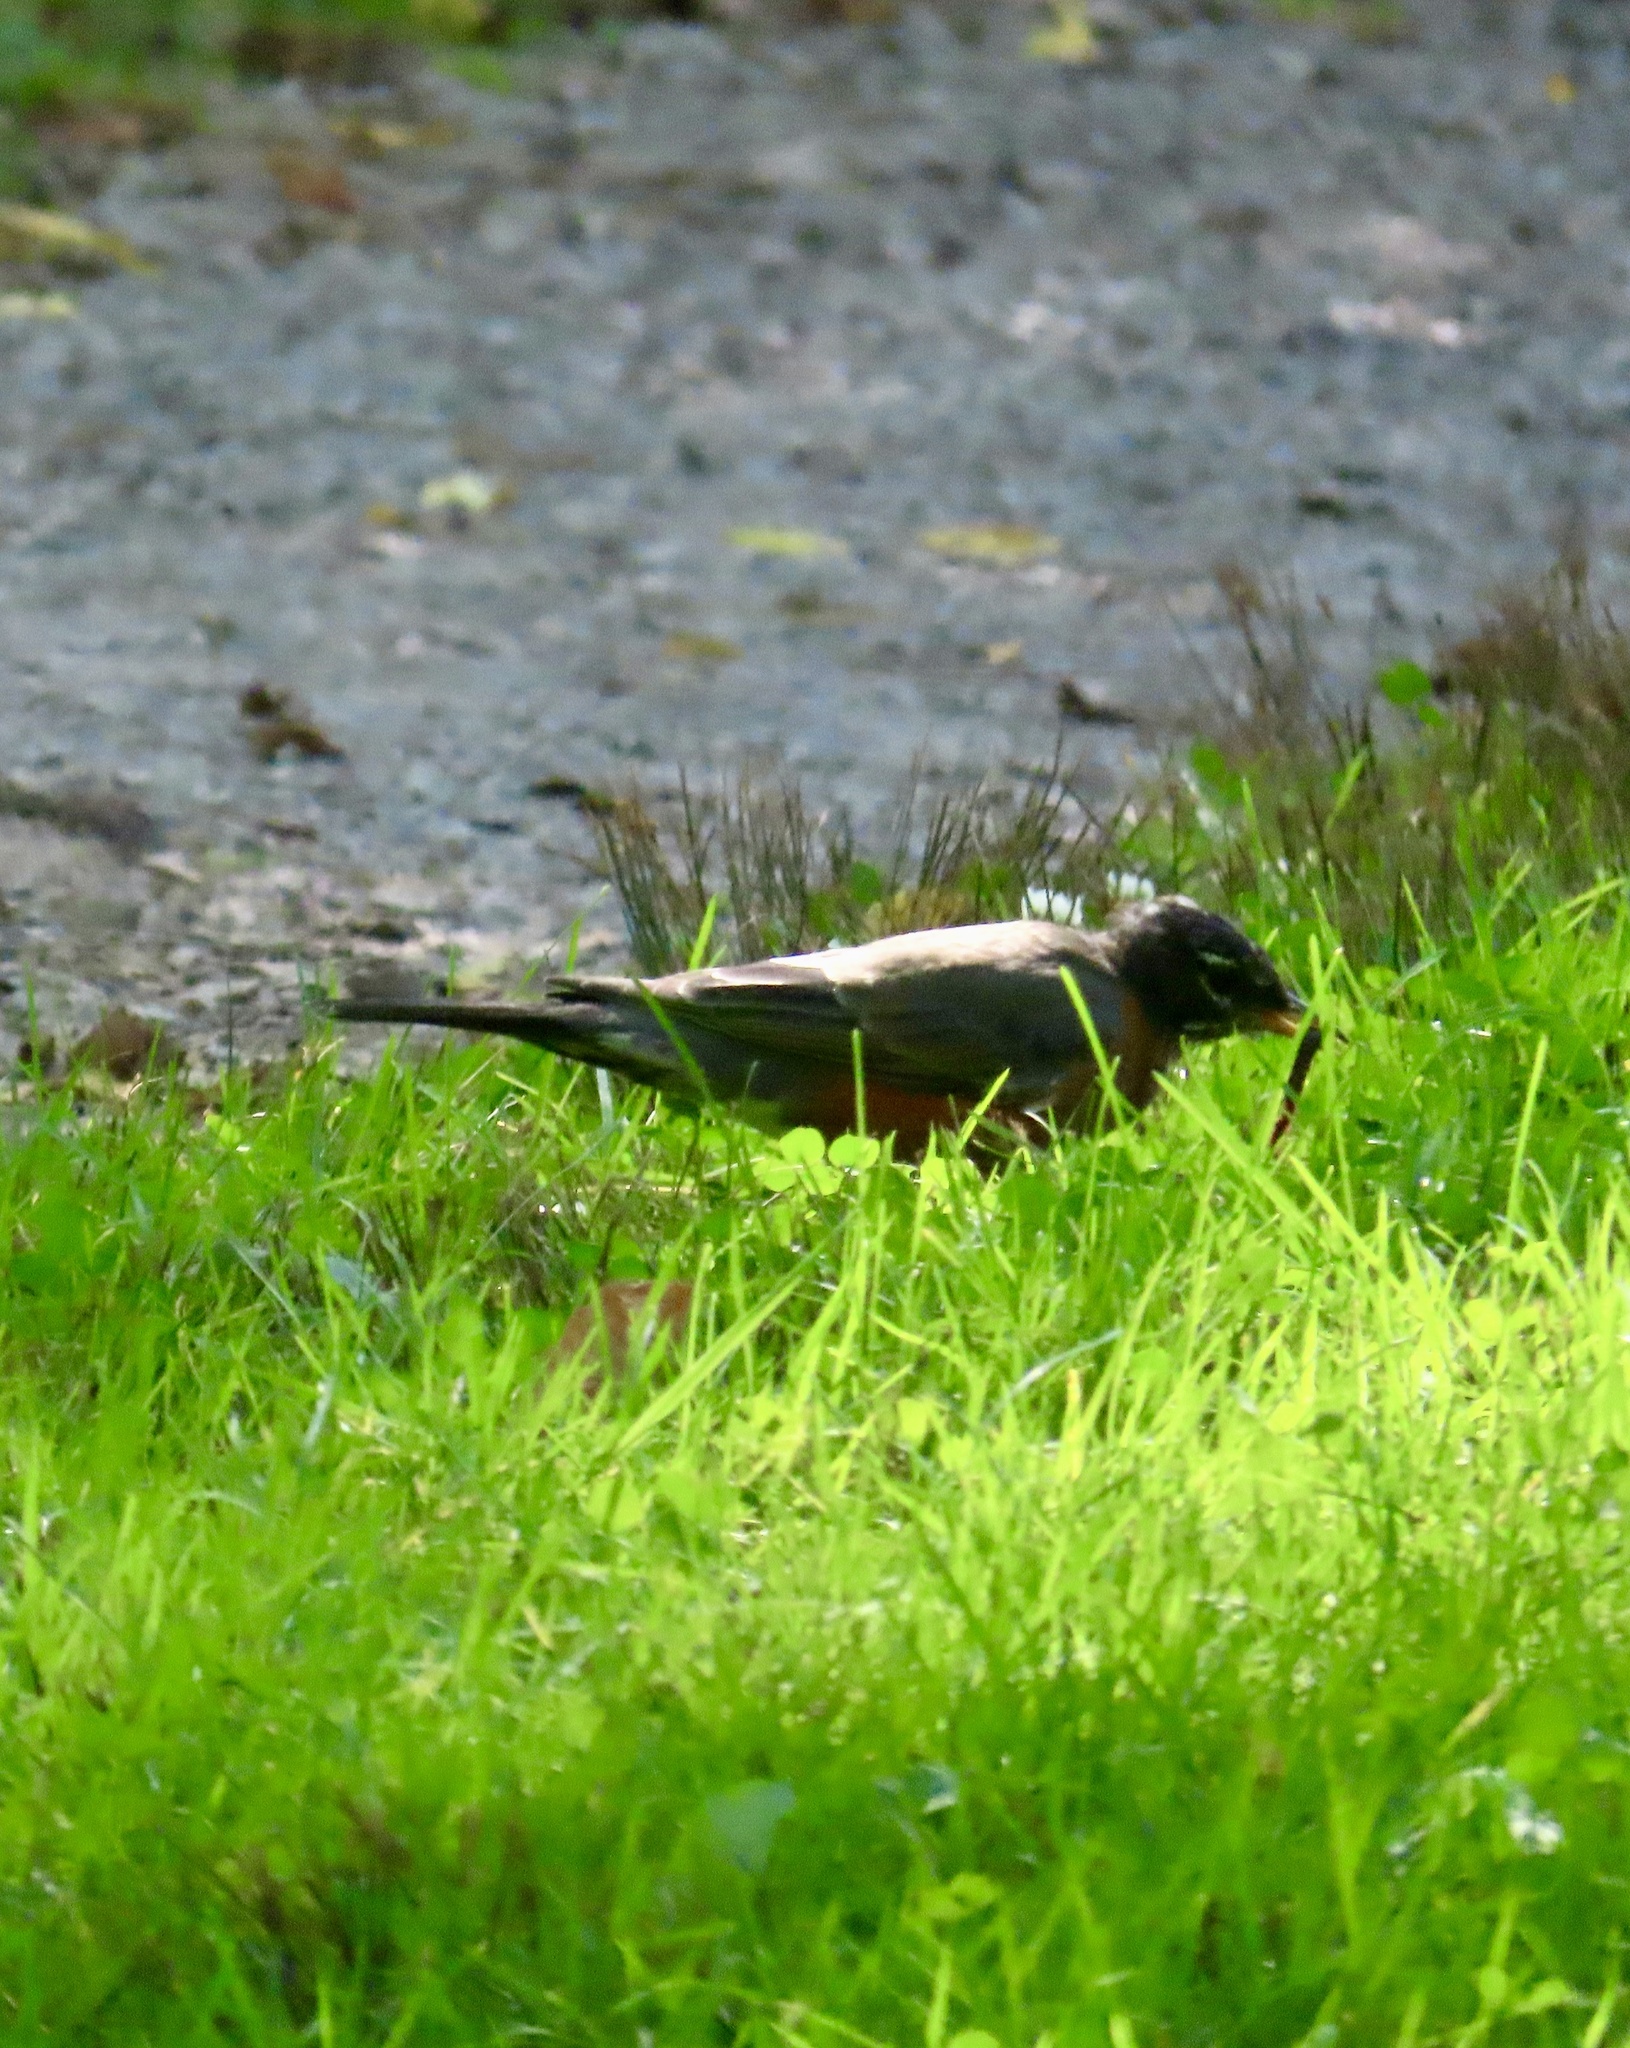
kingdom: Animalia
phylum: Chordata
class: Aves
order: Passeriformes
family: Turdidae
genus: Turdus
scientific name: Turdus migratorius
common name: American robin
